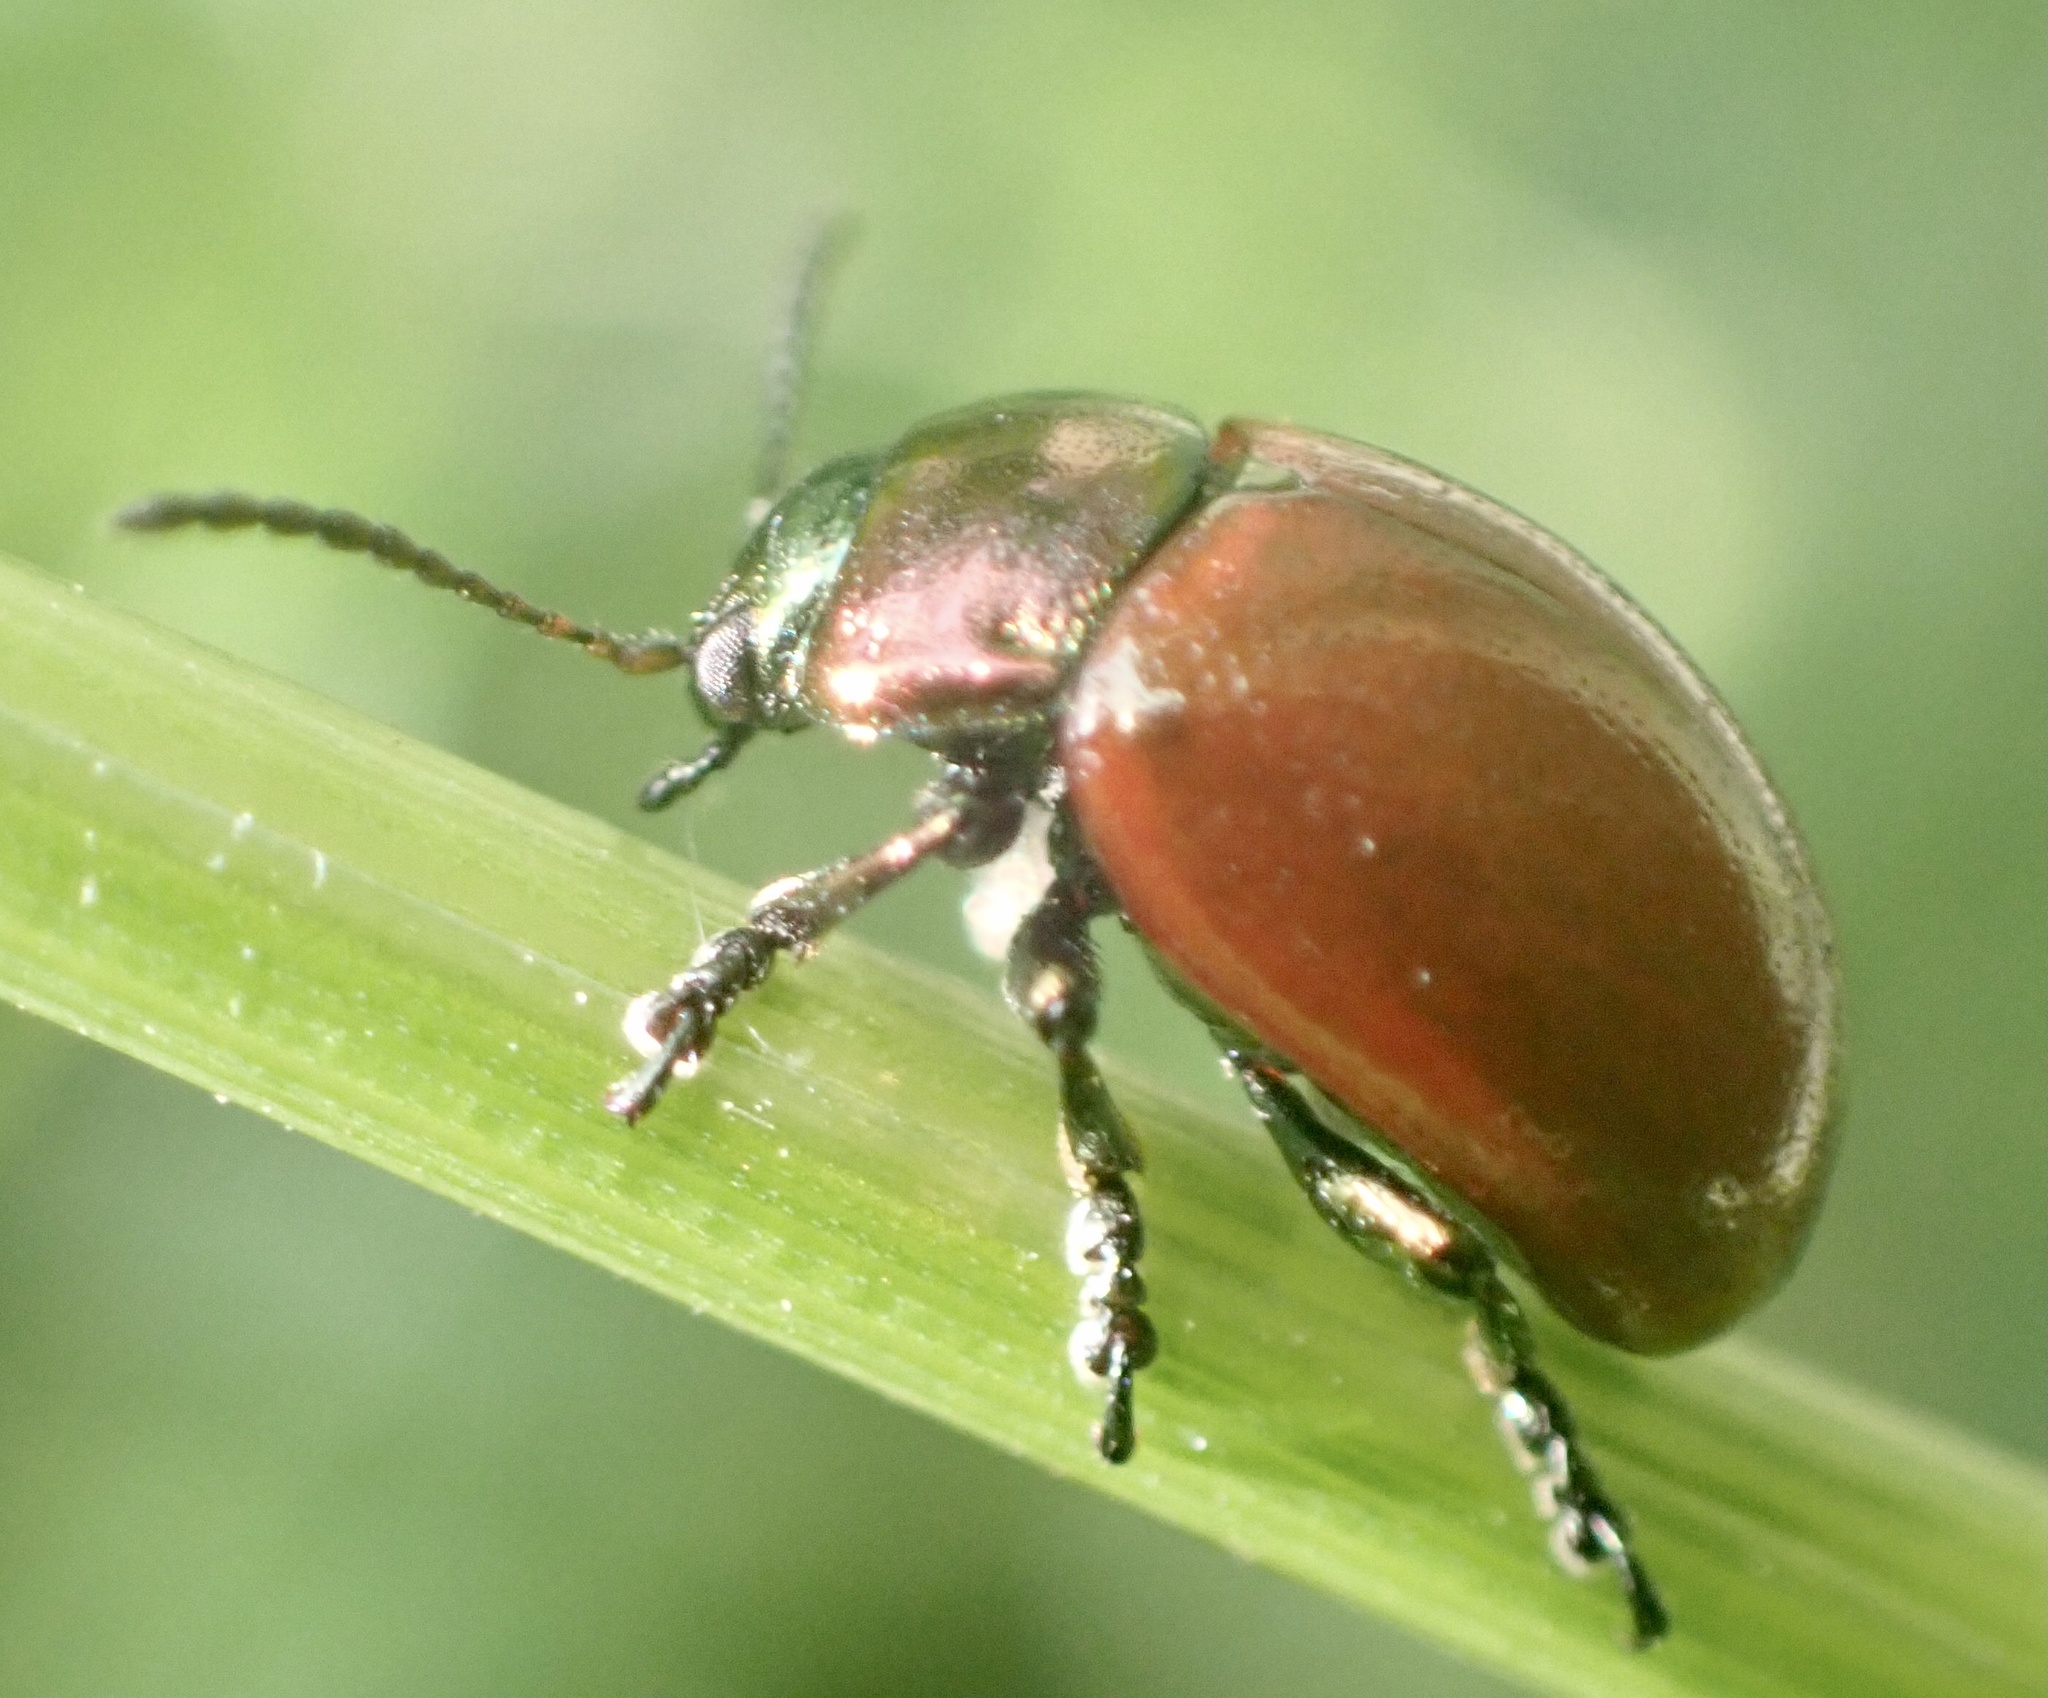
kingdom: Animalia
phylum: Arthropoda
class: Insecta
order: Coleoptera
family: Chrysomelidae
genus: Chrysomela
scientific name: Chrysomela polita
